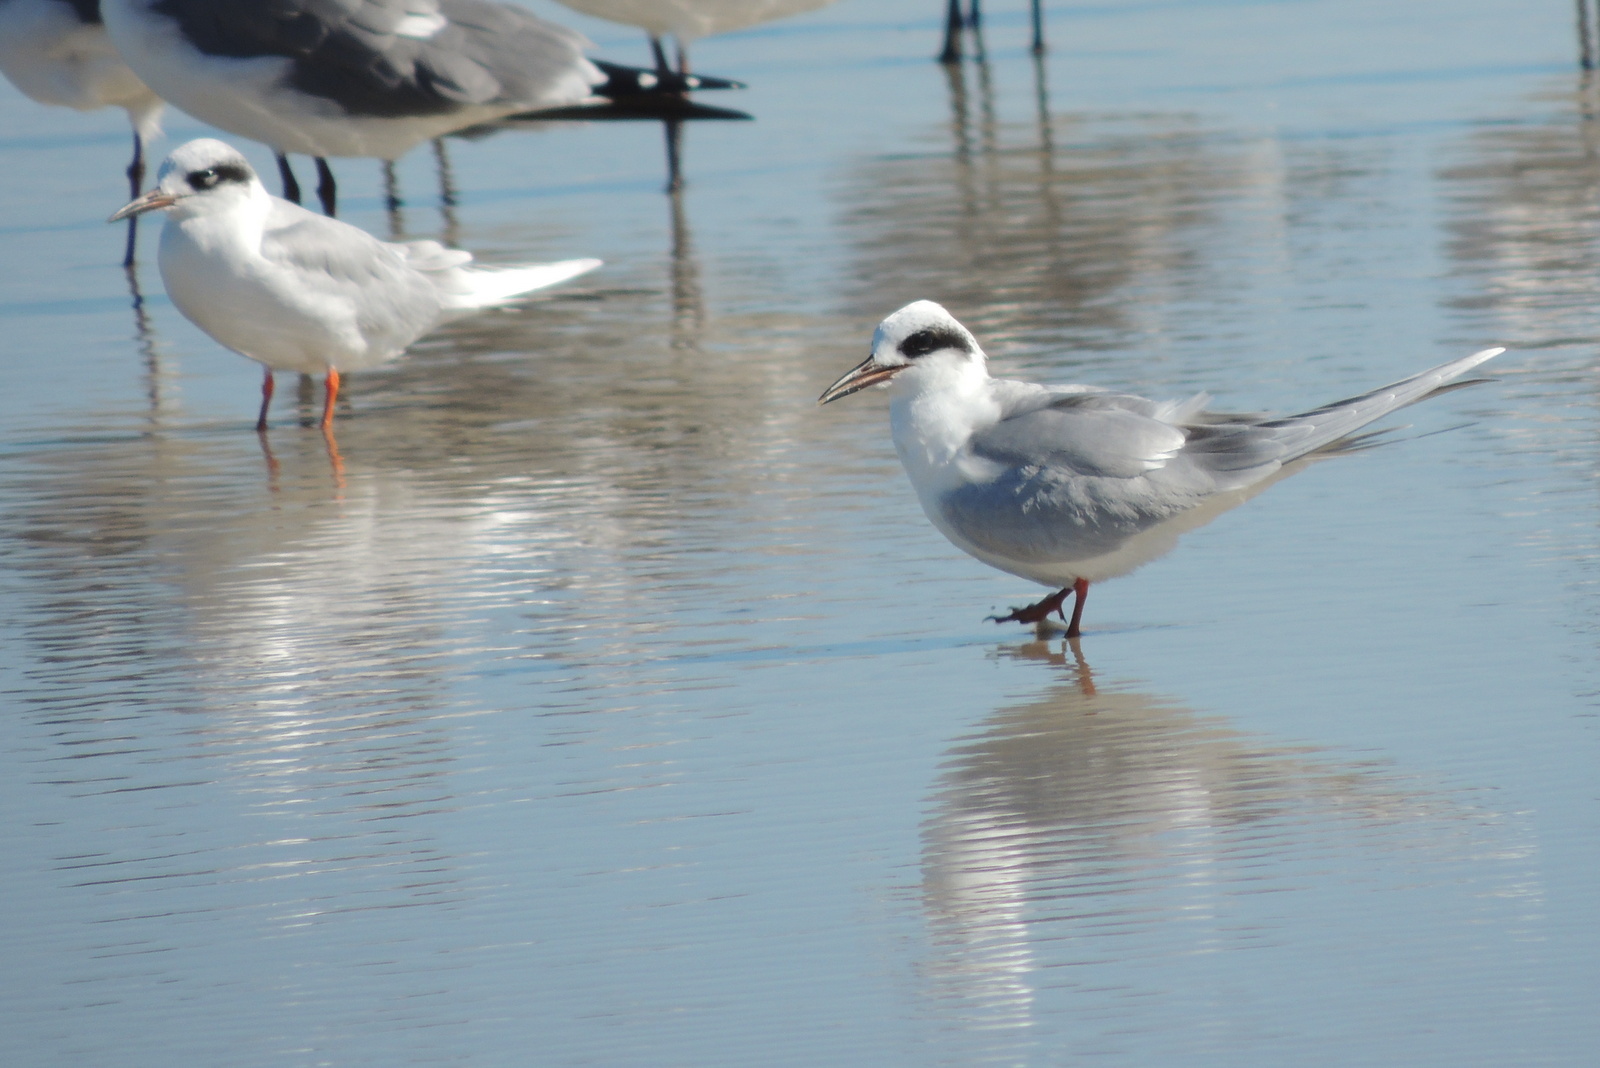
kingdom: Animalia
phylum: Chordata
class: Aves
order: Charadriiformes
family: Laridae
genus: Sterna
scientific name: Sterna forsteri
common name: Forster's tern
